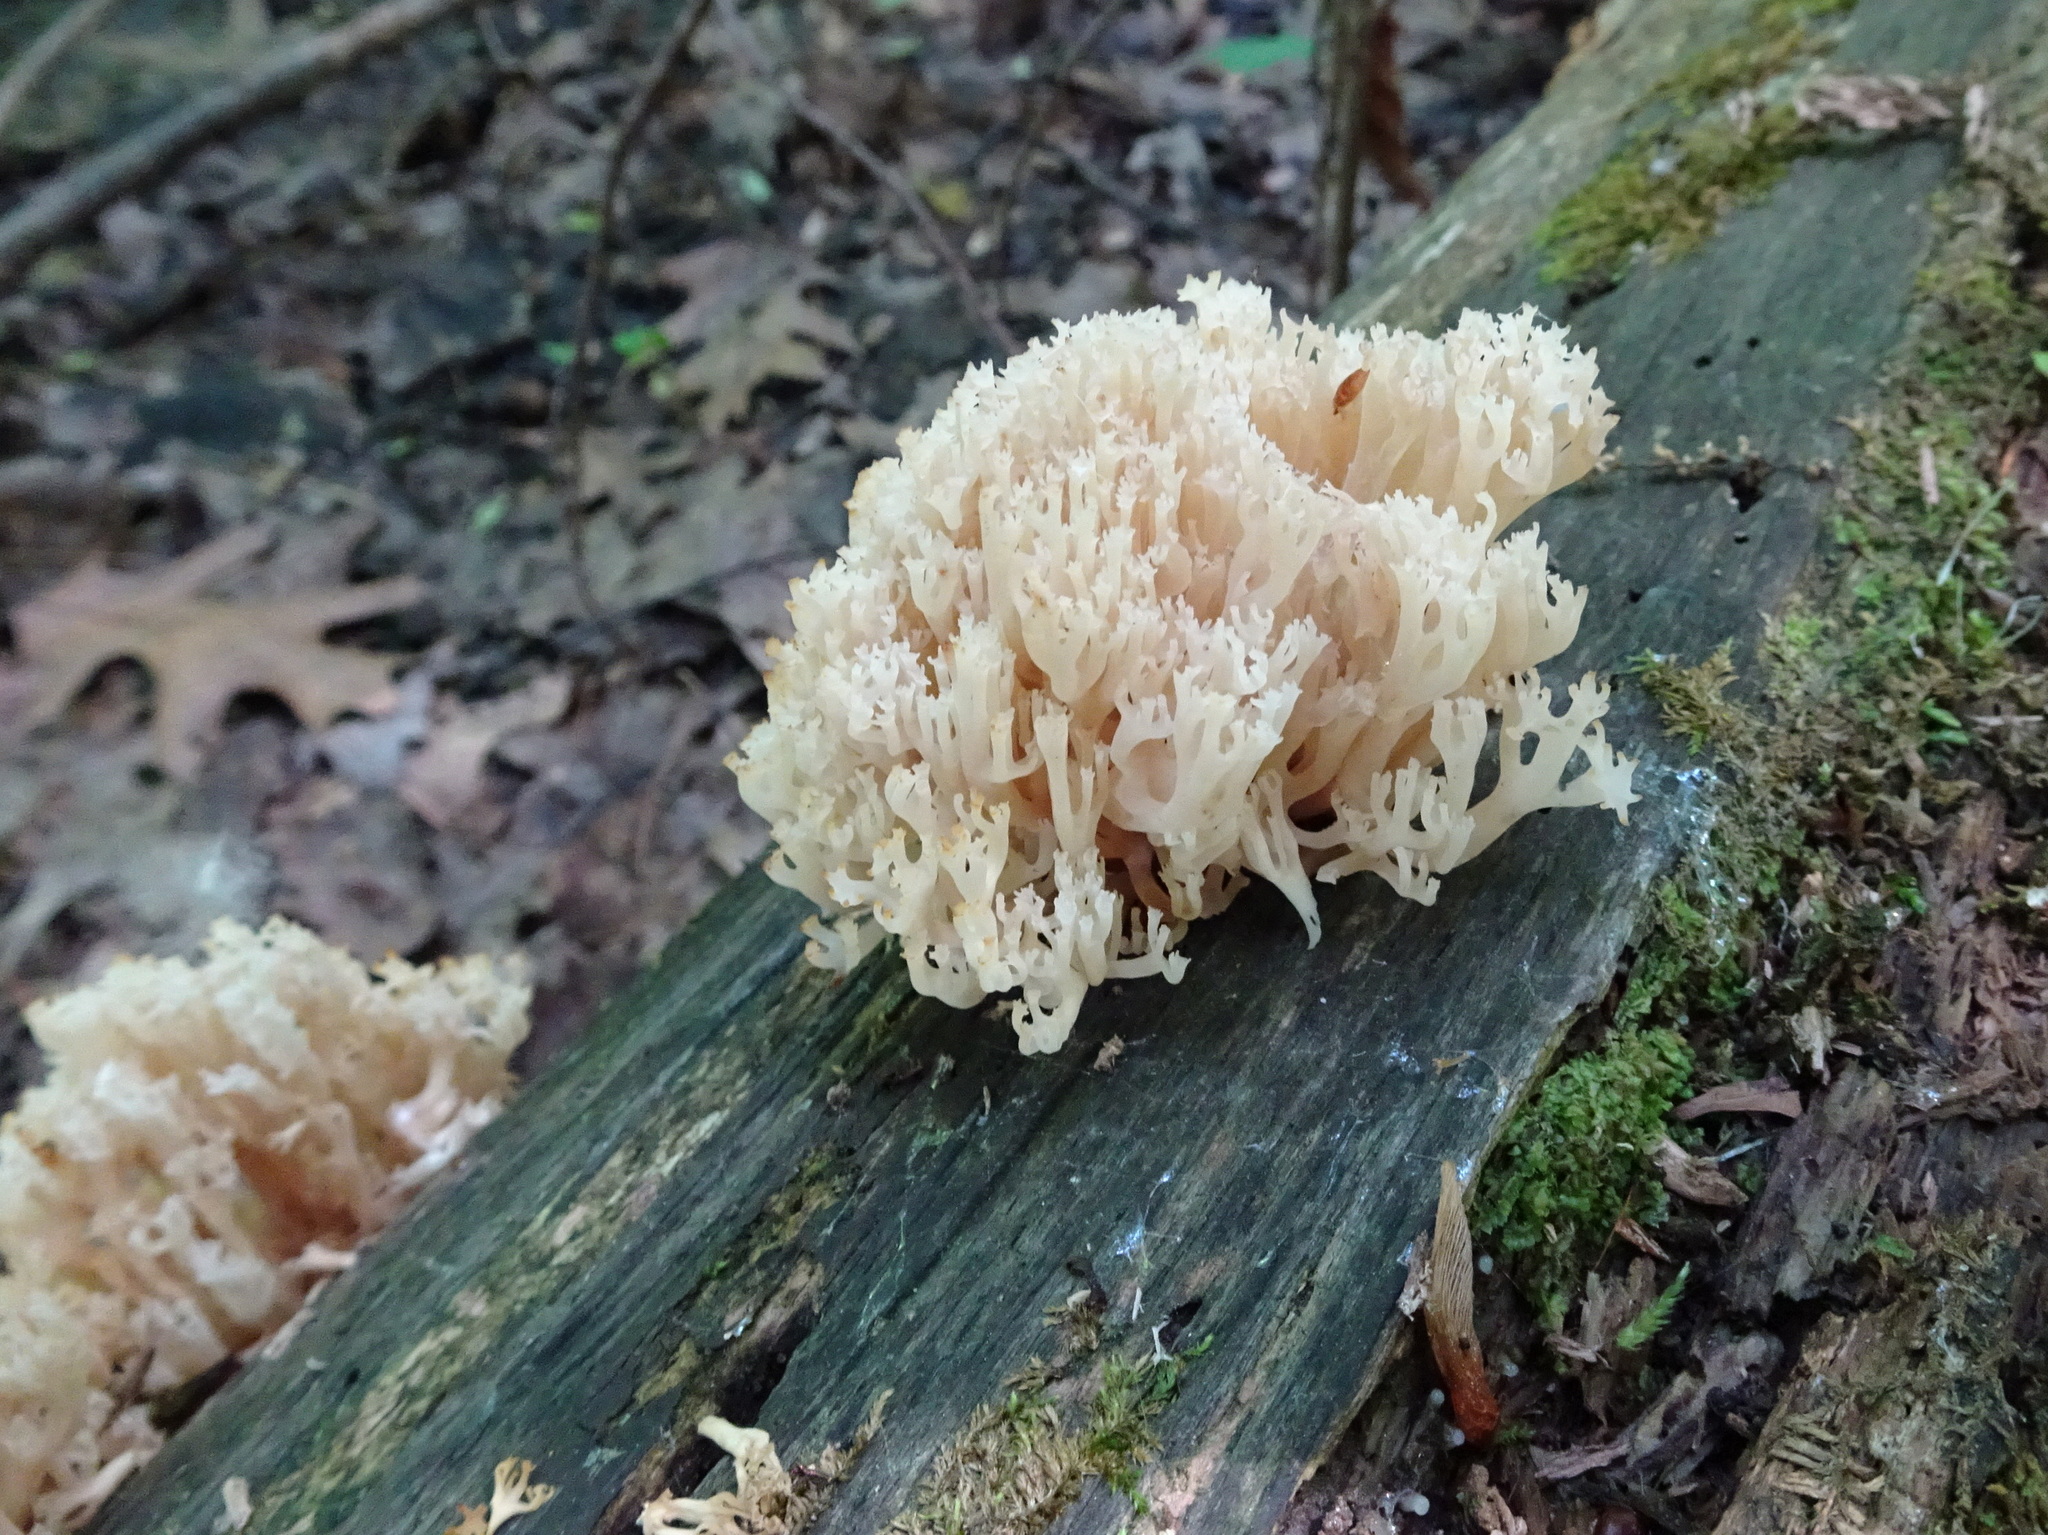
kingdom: Fungi
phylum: Basidiomycota
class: Agaricomycetes
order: Russulales
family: Auriscalpiaceae
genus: Artomyces
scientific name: Artomyces pyxidatus
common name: Crown-tipped coral fungus
